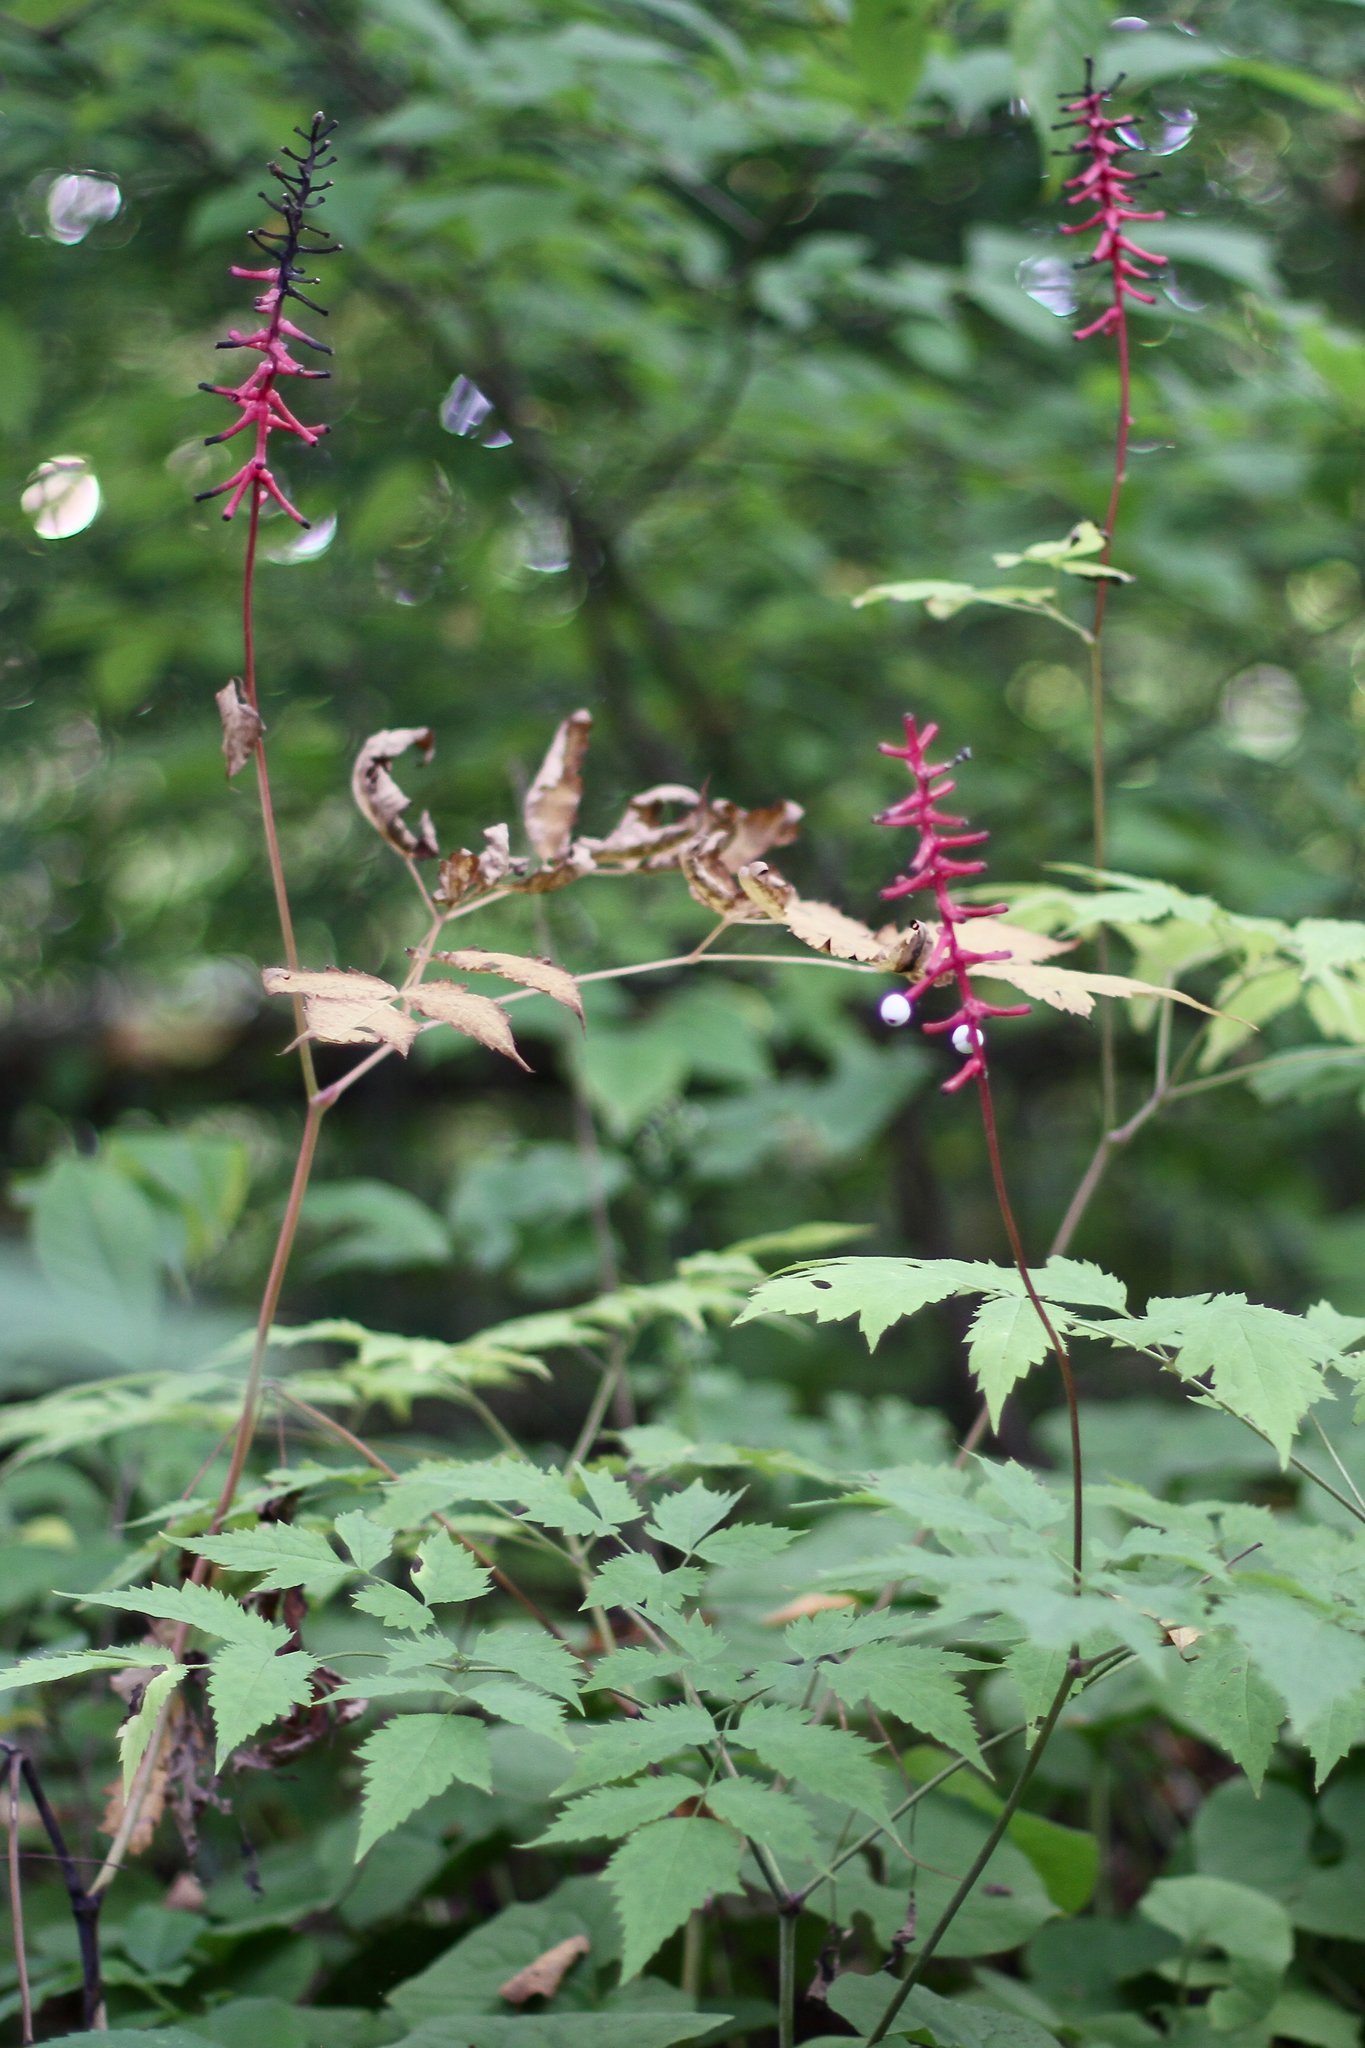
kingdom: Plantae
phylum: Tracheophyta
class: Magnoliopsida
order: Ranunculales
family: Ranunculaceae
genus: Actaea
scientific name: Actaea pachypoda
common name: Doll's-eyes
